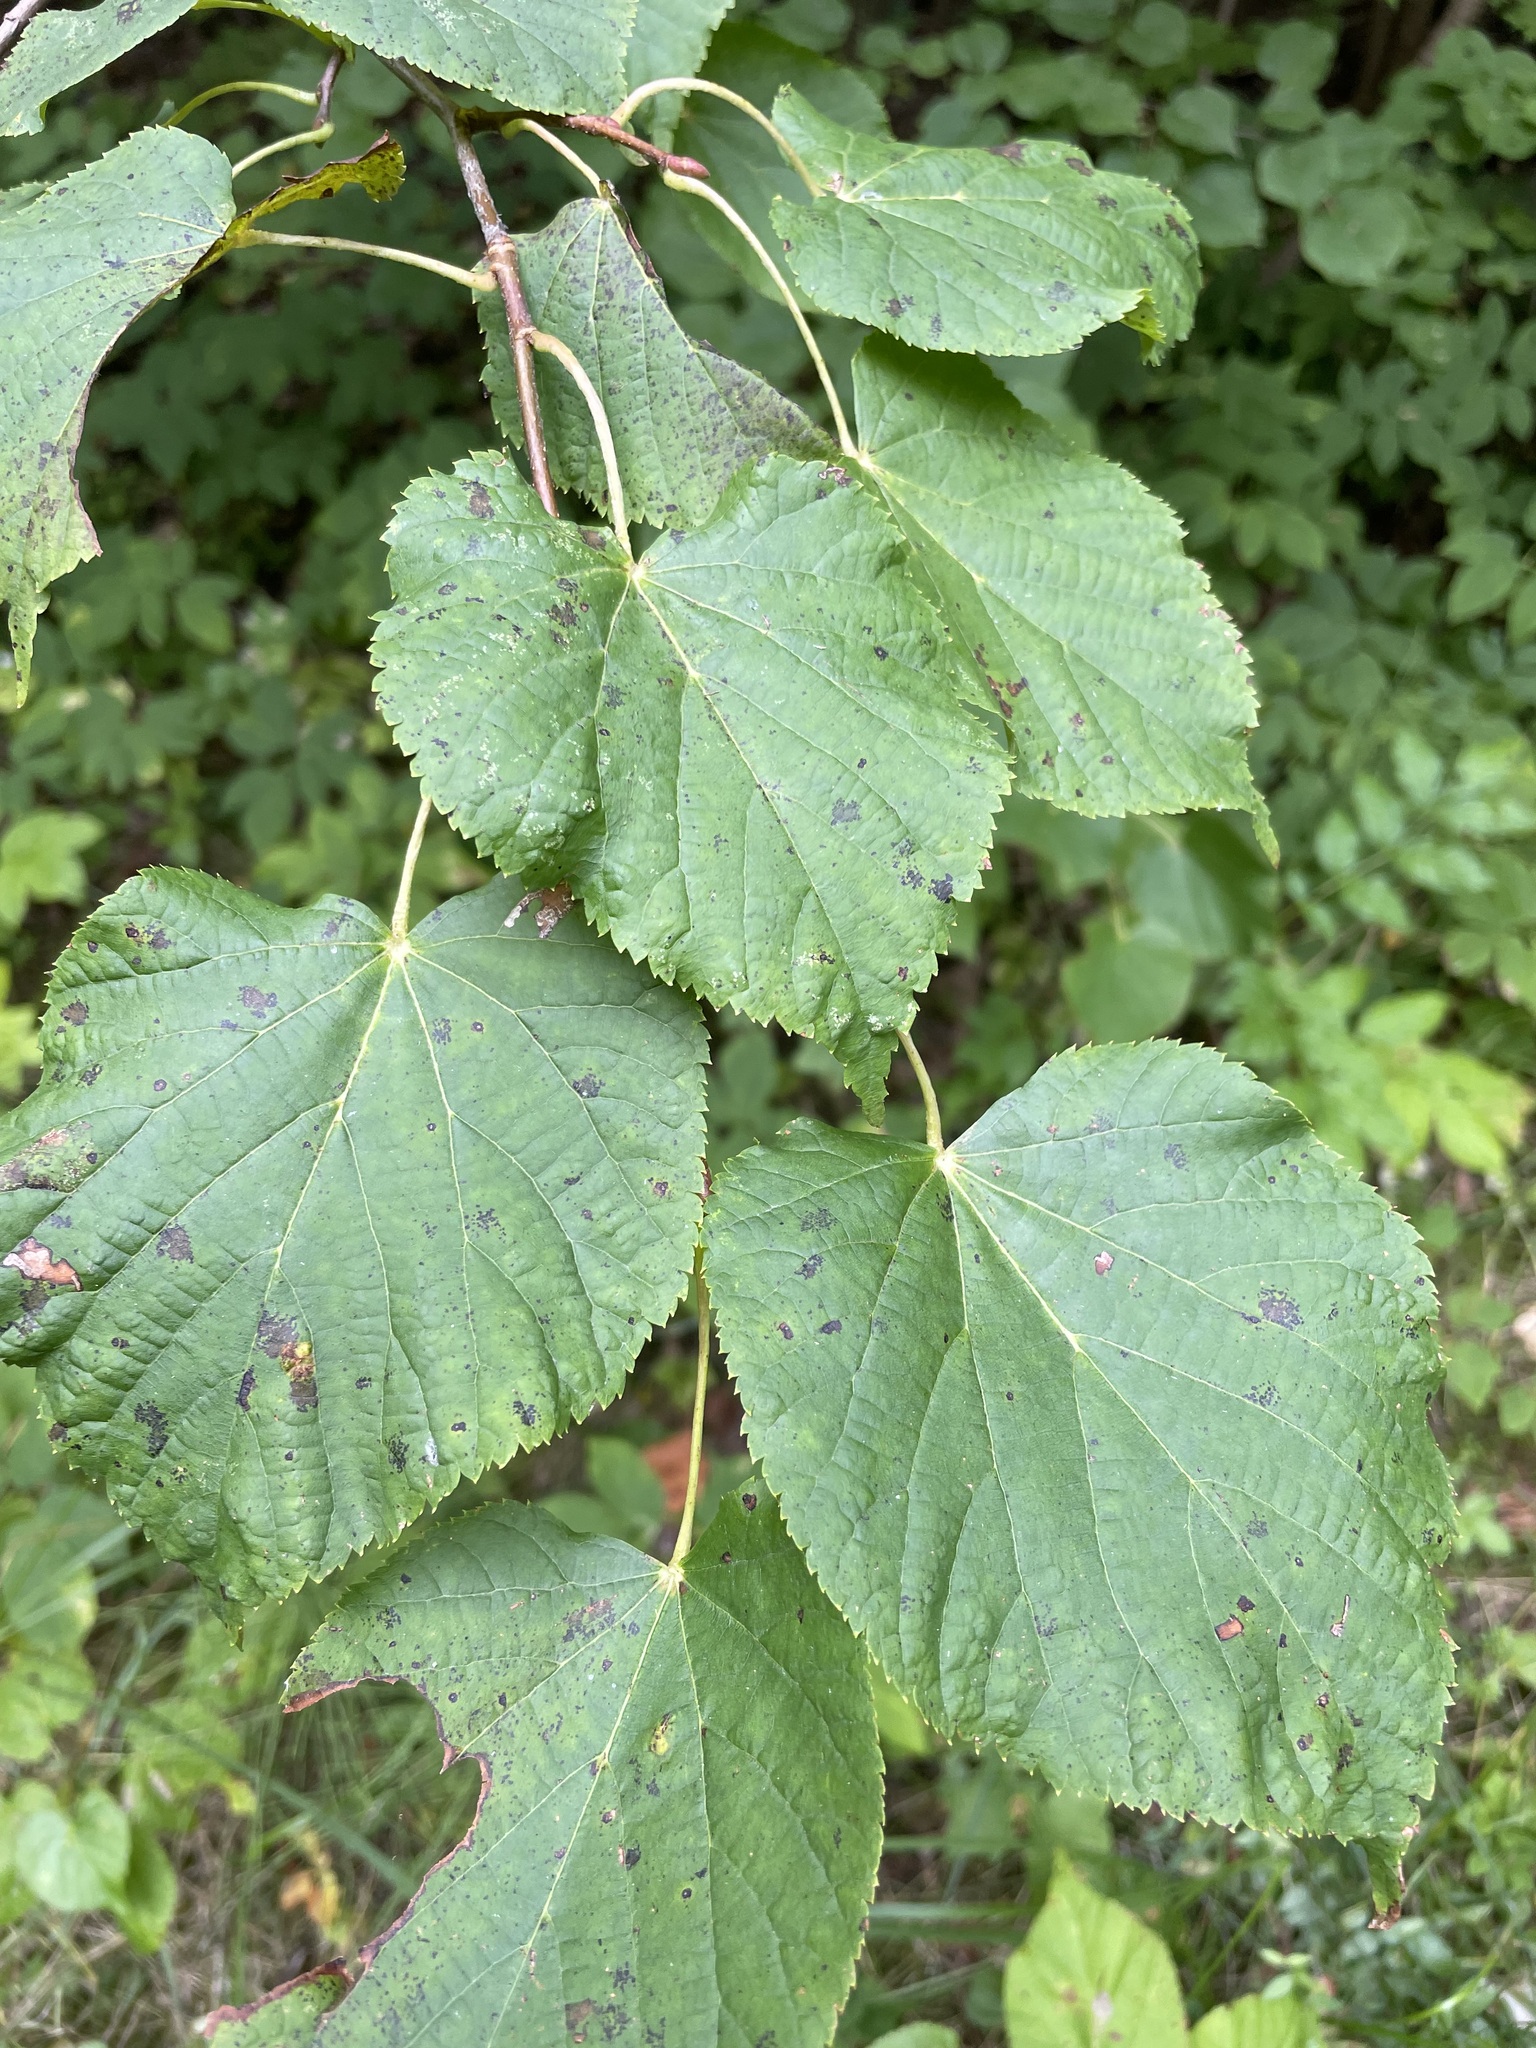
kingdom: Plantae
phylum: Tracheophyta
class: Magnoliopsida
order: Malvales
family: Malvaceae
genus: Tilia
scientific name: Tilia cordata
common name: Small-leaved lime
